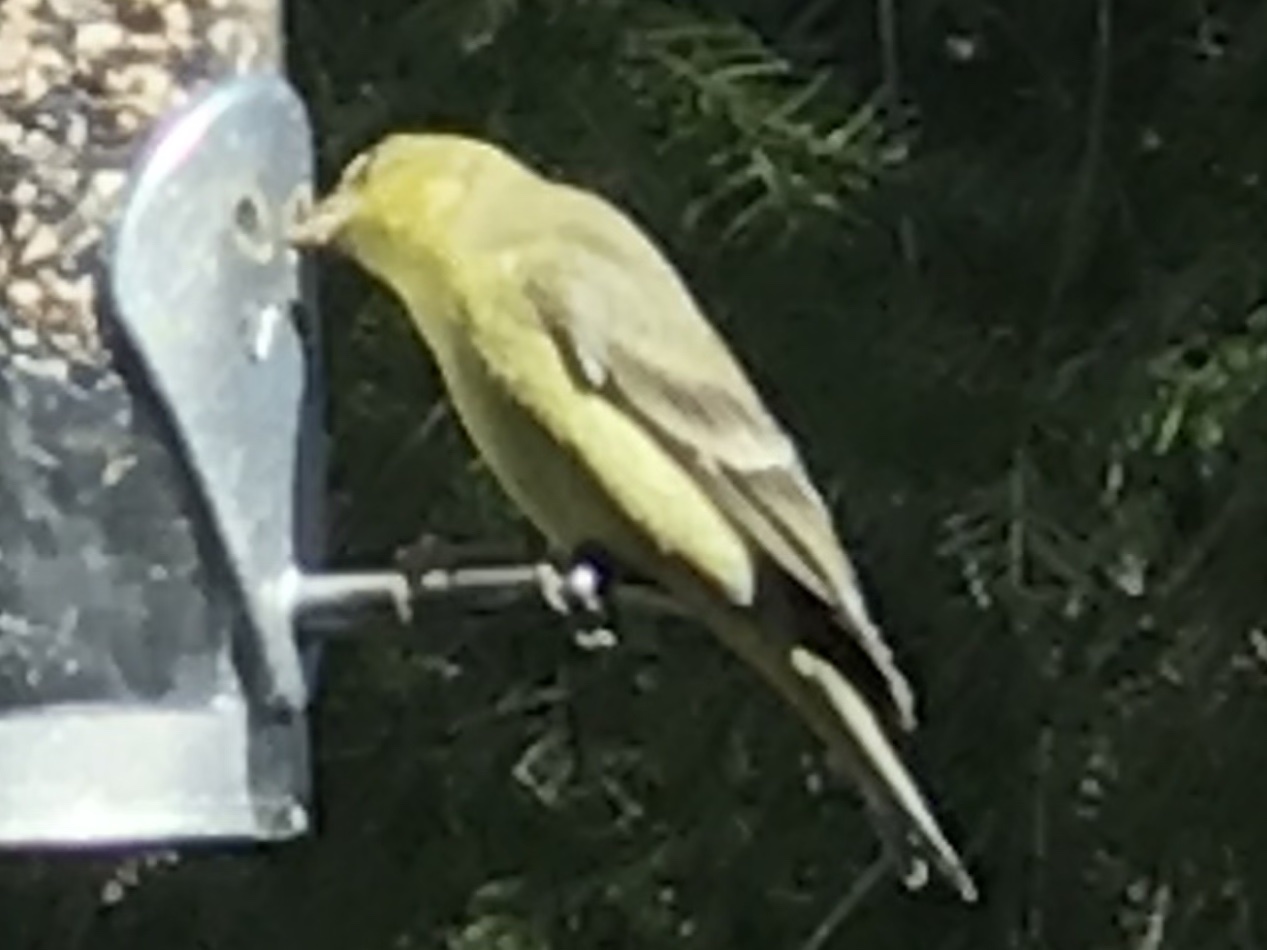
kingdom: Animalia
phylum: Chordata
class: Aves
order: Passeriformes
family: Fringillidae
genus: Spinus
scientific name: Spinus psaltria
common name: Lesser goldfinch
